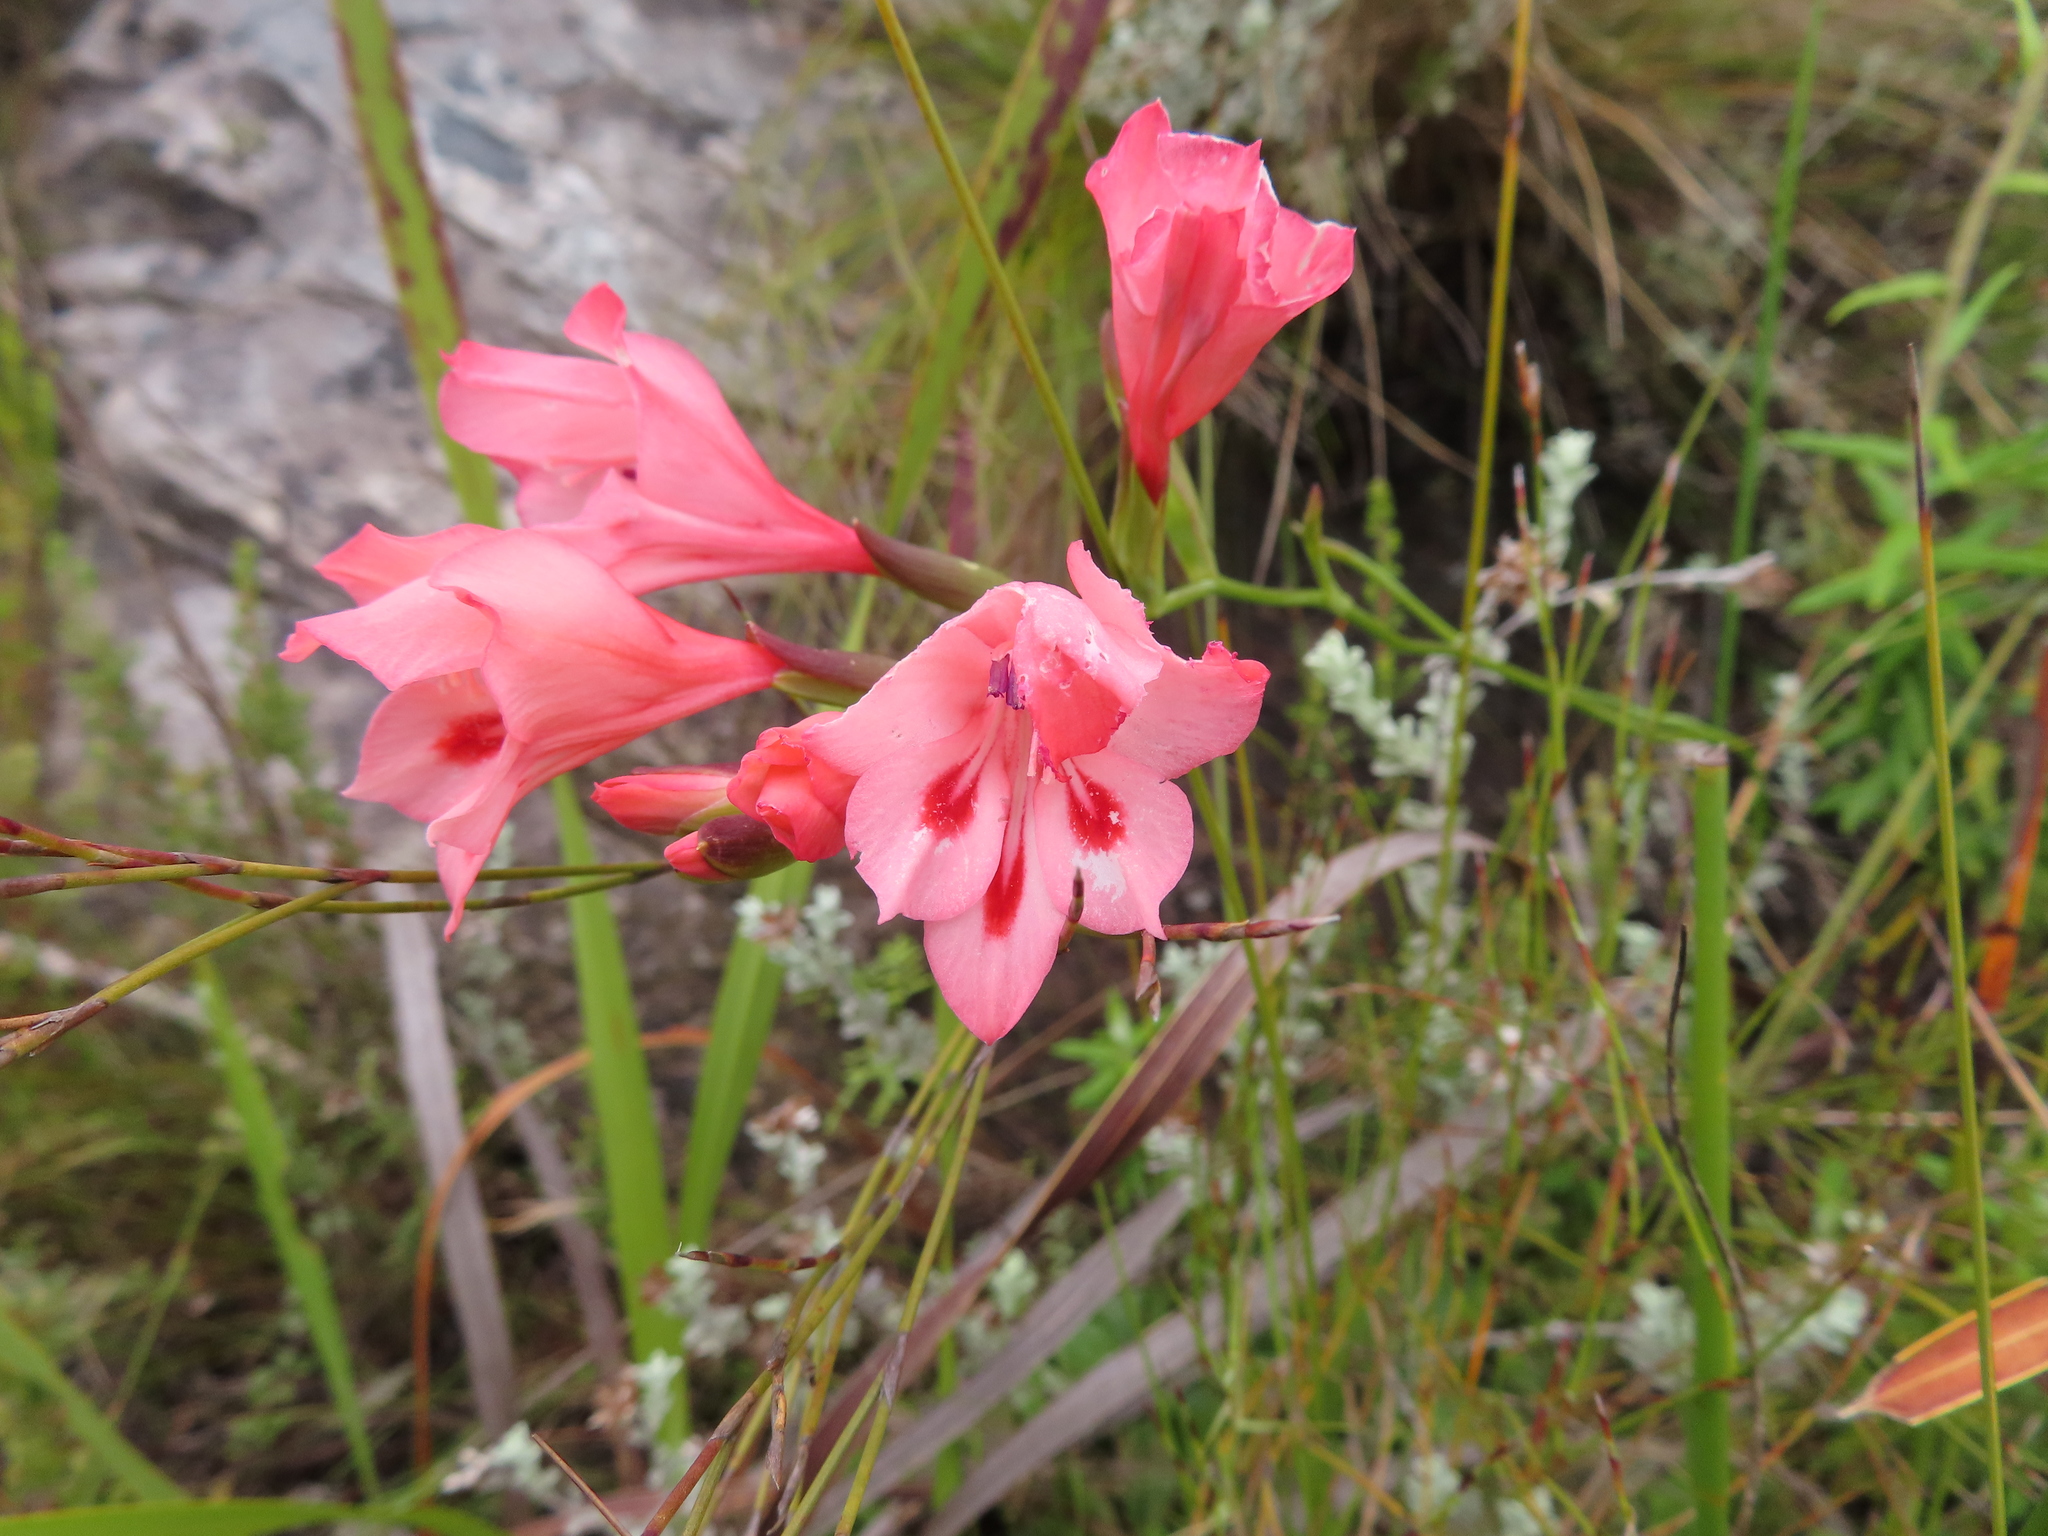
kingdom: Plantae
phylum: Tracheophyta
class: Liliopsida
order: Asparagales
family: Iridaceae
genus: Gladiolus
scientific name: Gladiolus oreocharis
